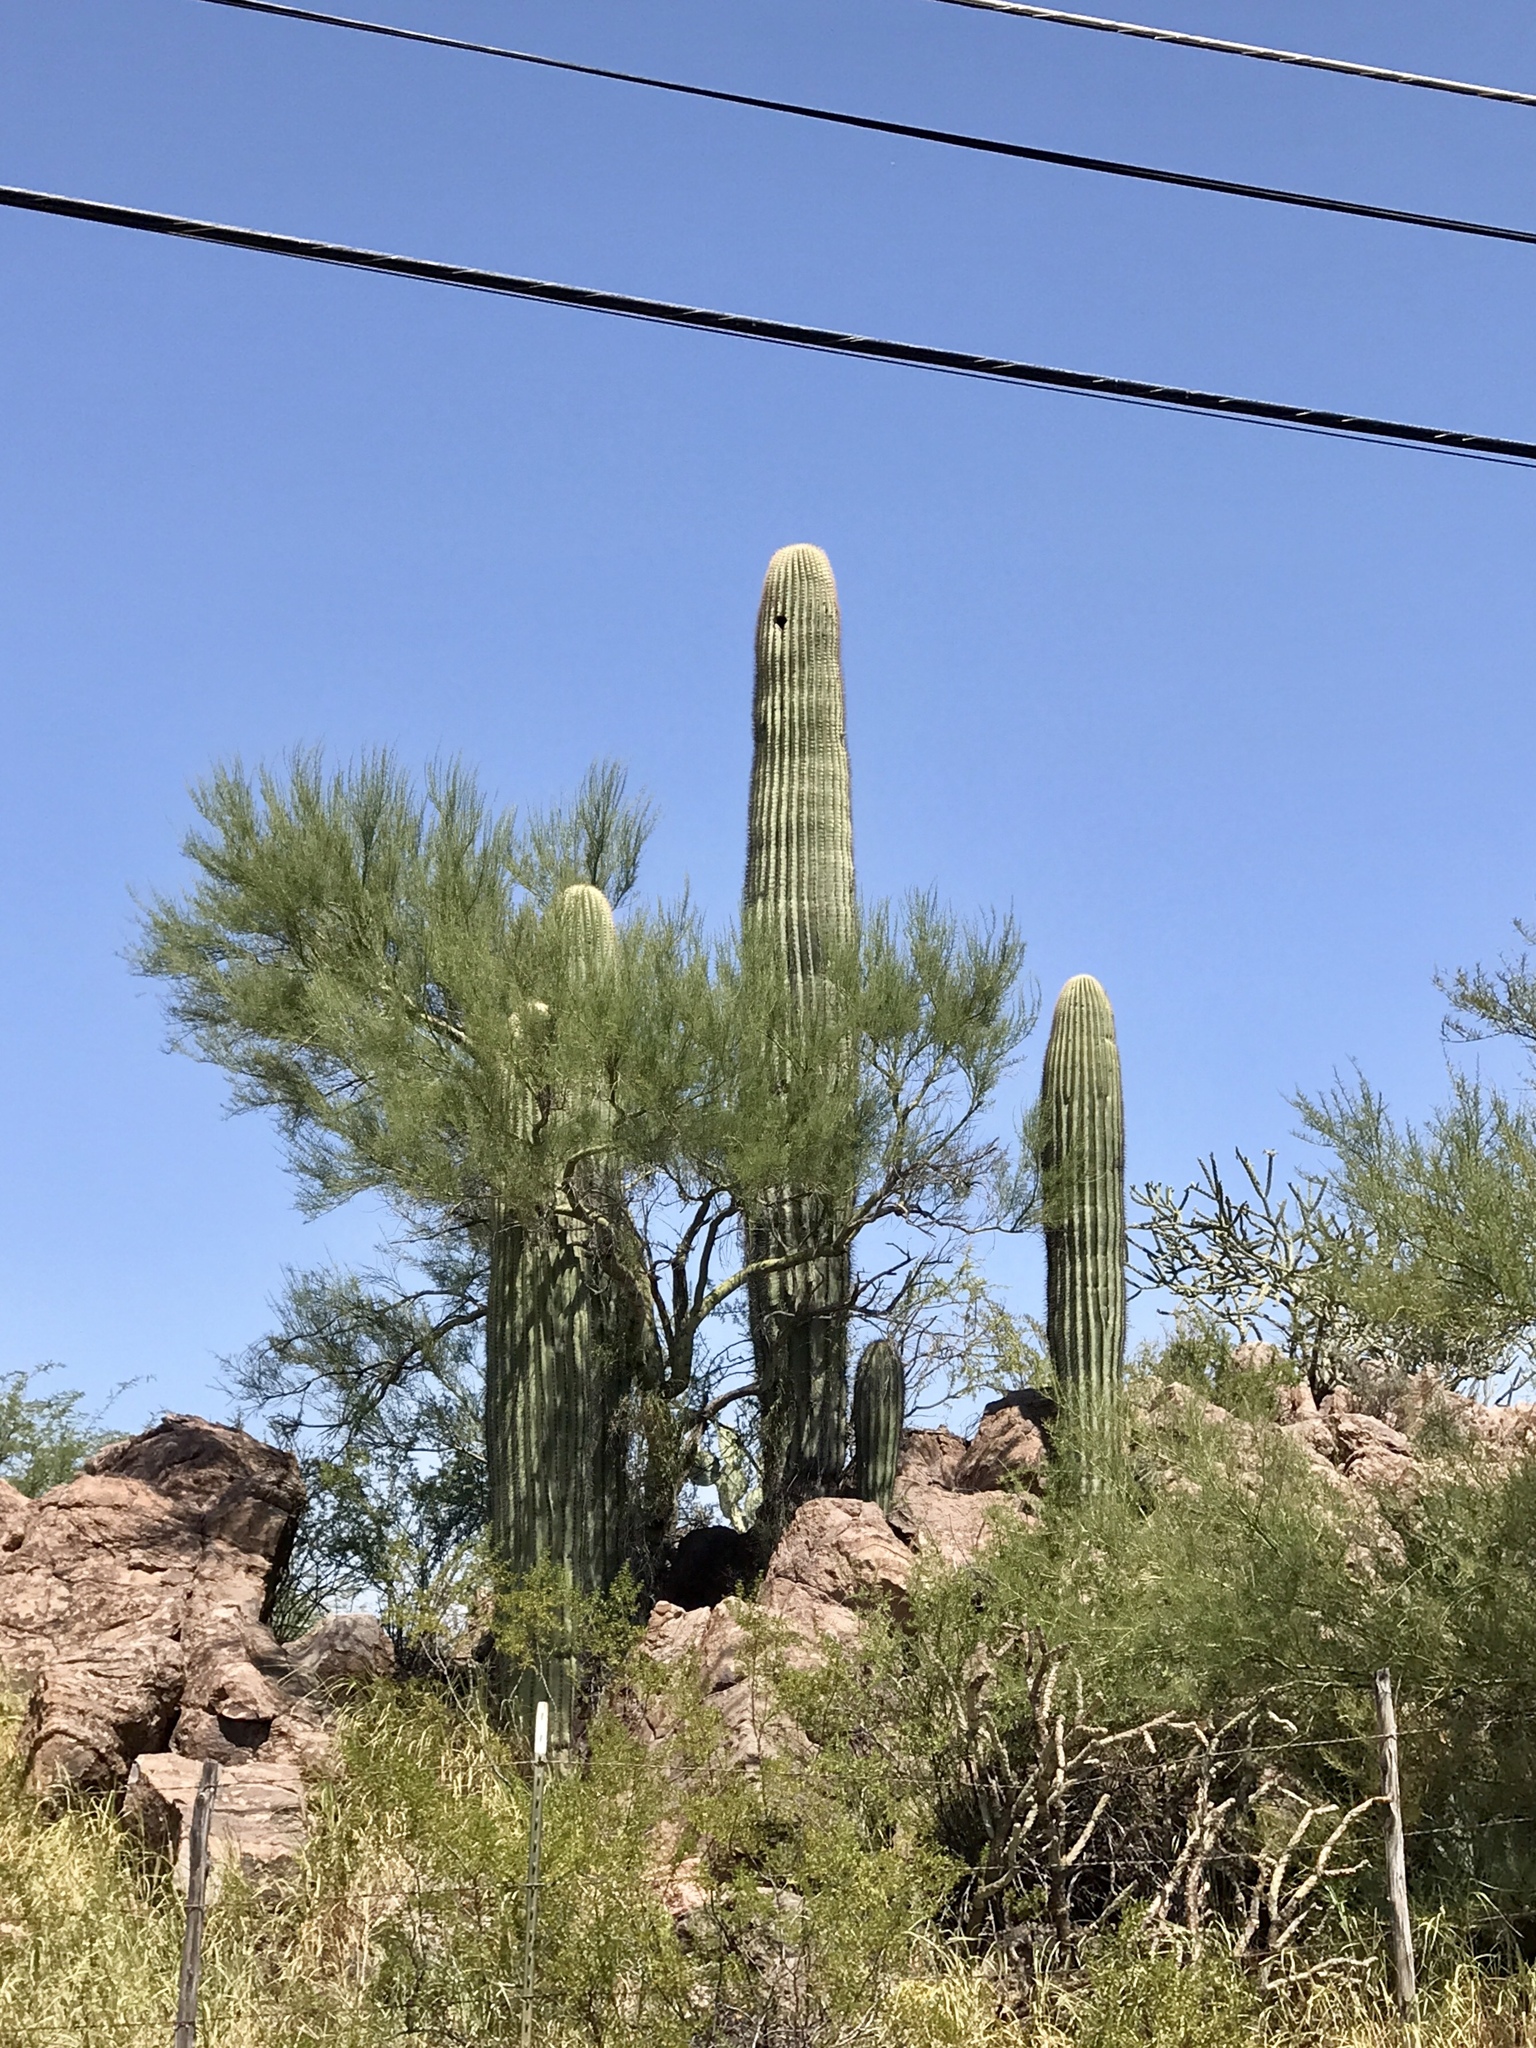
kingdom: Plantae
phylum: Tracheophyta
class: Magnoliopsida
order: Caryophyllales
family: Cactaceae
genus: Carnegiea
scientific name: Carnegiea gigantea
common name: Saguaro
